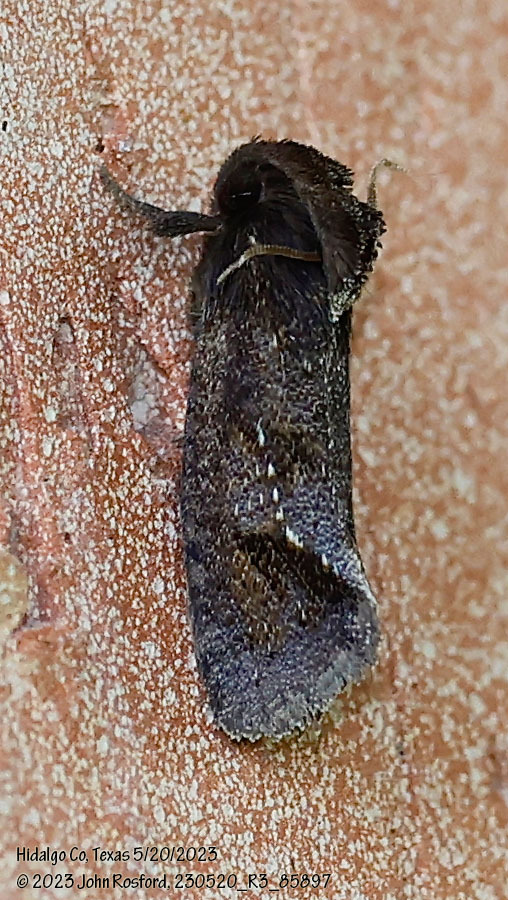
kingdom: Animalia
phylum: Arthropoda
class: Insecta
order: Lepidoptera
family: Tineidae
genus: Acrolophus
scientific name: Acrolophus texanella
